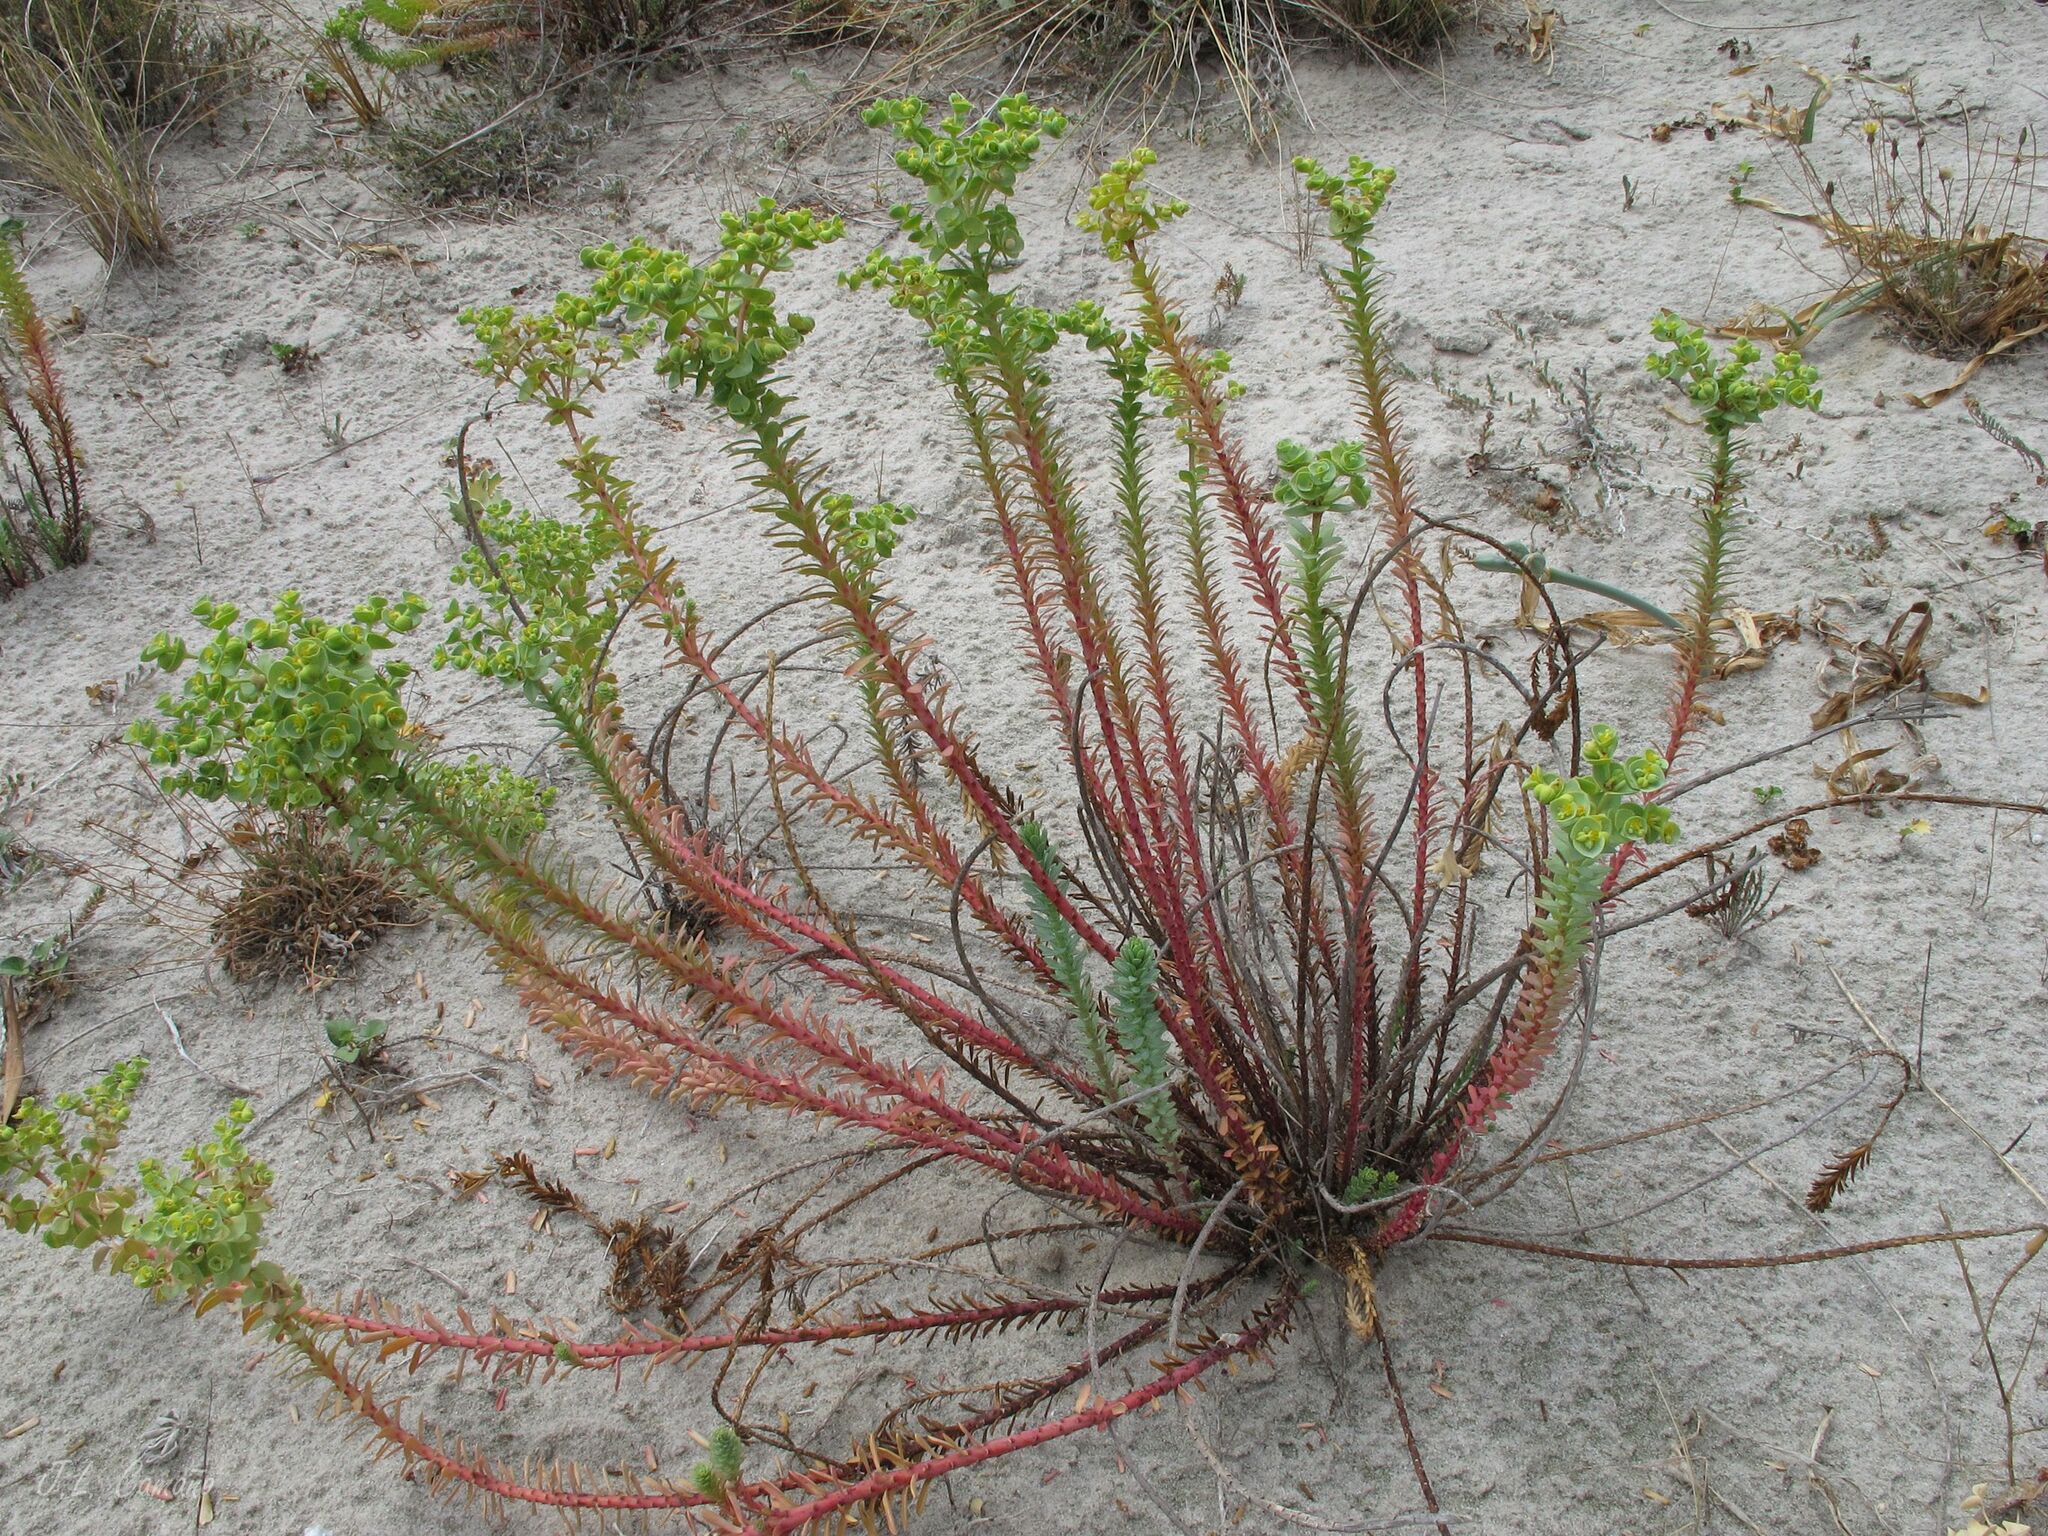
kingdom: Plantae
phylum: Tracheophyta
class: Magnoliopsida
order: Malpighiales
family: Euphorbiaceae
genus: Euphorbia
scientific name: Euphorbia paralias
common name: Sea spurge
